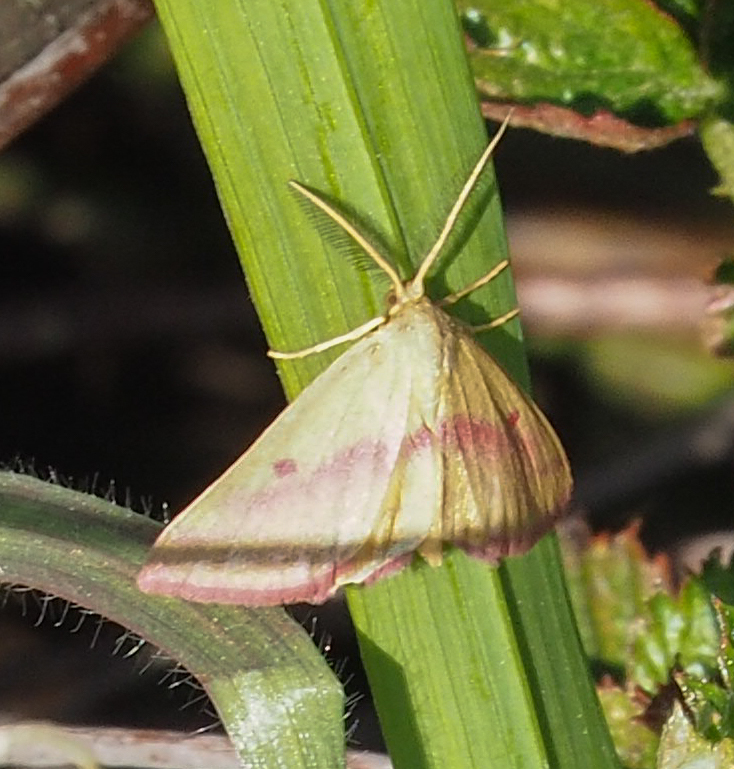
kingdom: Animalia
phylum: Arthropoda
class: Insecta
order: Lepidoptera
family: Geometridae
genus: Haematopis
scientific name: Haematopis grataria
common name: Chickweed geometer
